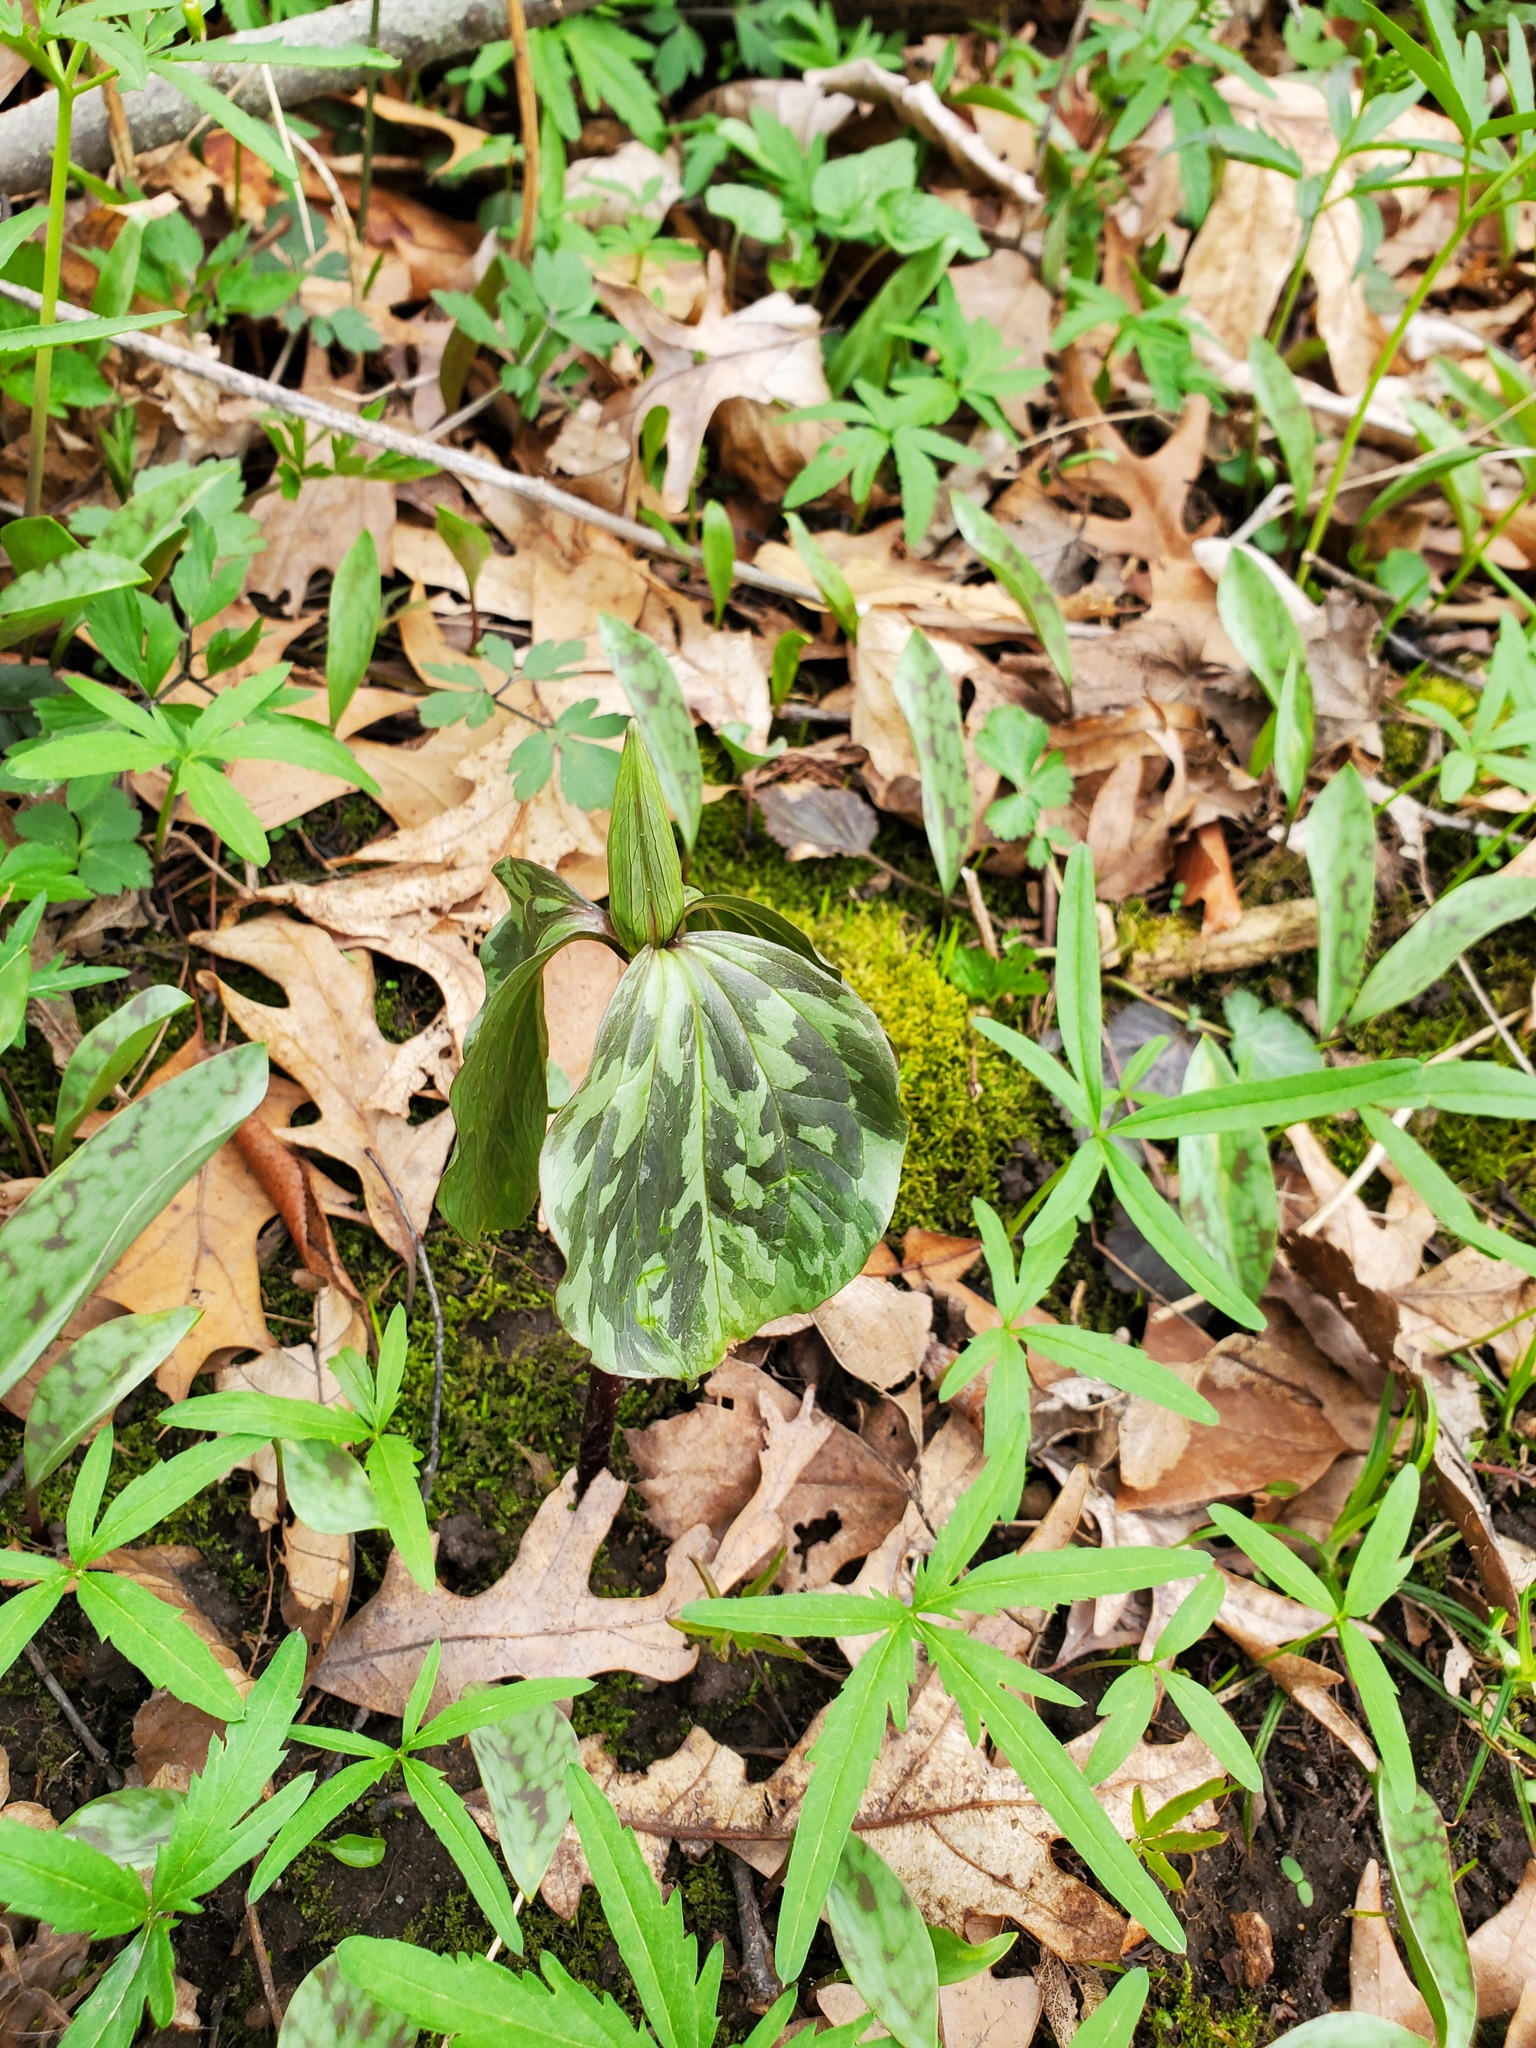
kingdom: Plantae
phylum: Tracheophyta
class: Liliopsida
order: Liliales
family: Melanthiaceae
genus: Trillium
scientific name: Trillium recurvatum
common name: Bloody butcher
